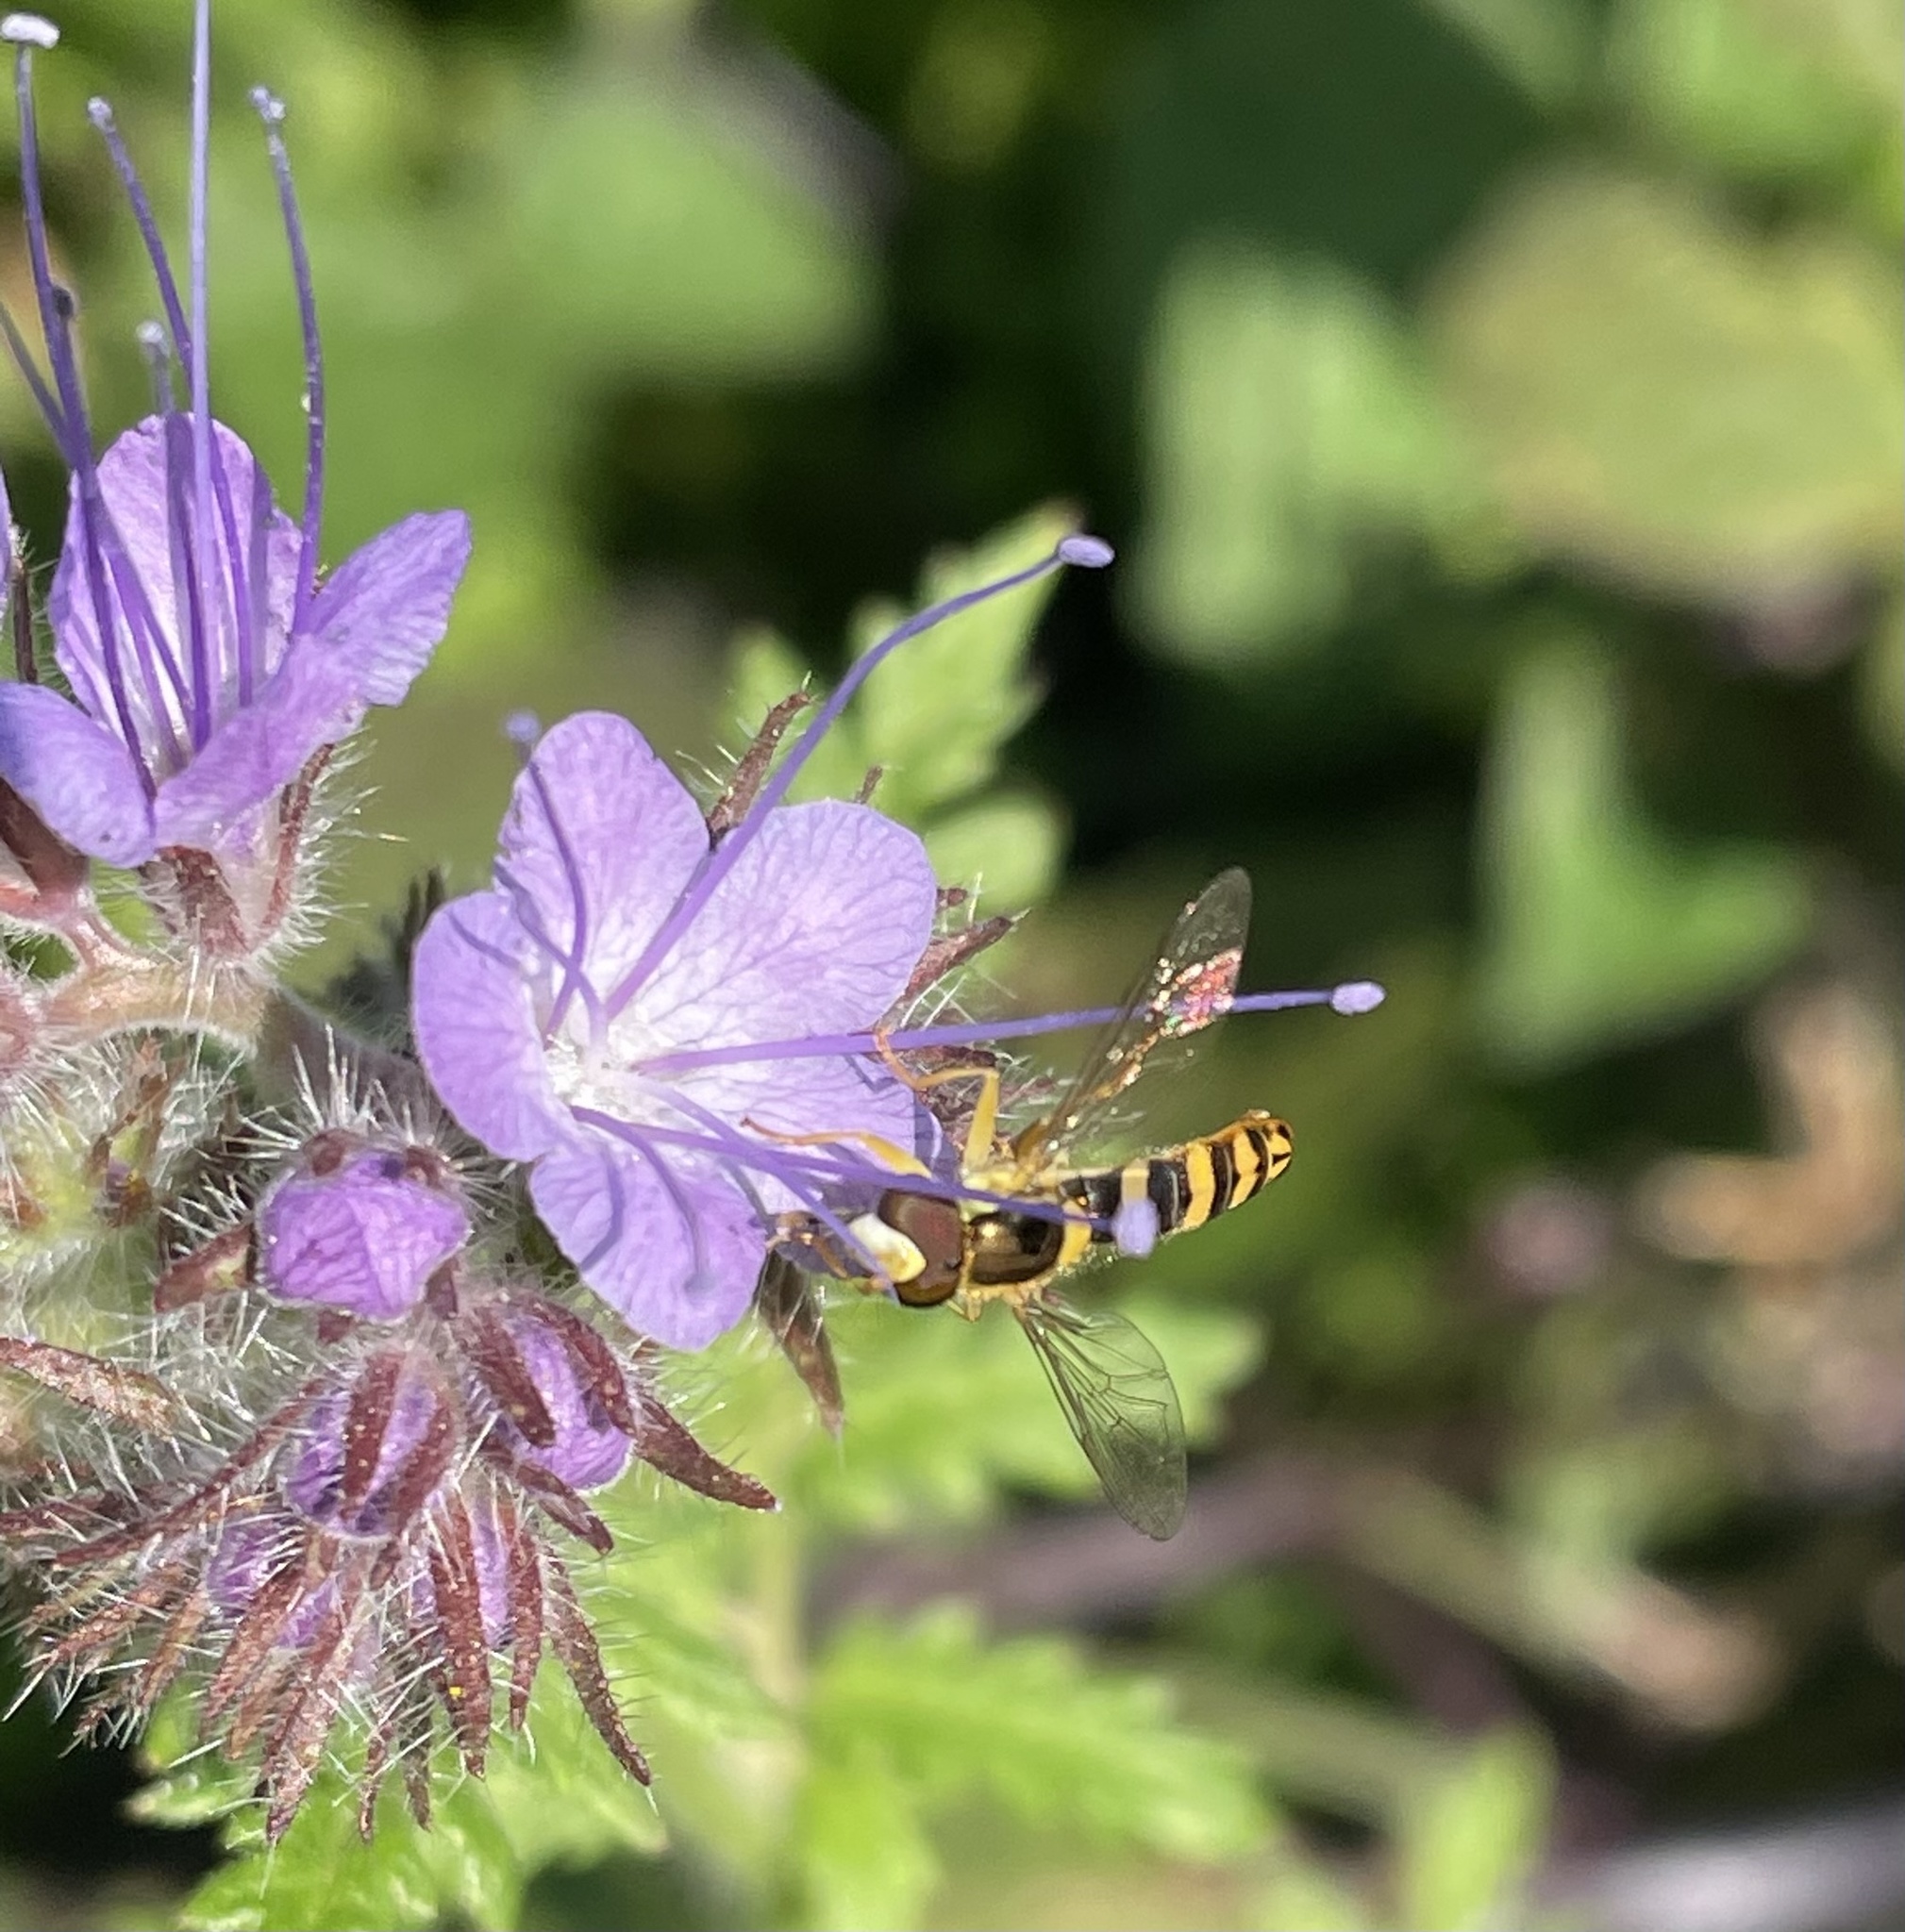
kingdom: Animalia
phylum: Arthropoda
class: Insecta
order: Diptera
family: Syrphidae
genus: Sphaerophoria
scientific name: Sphaerophoria
